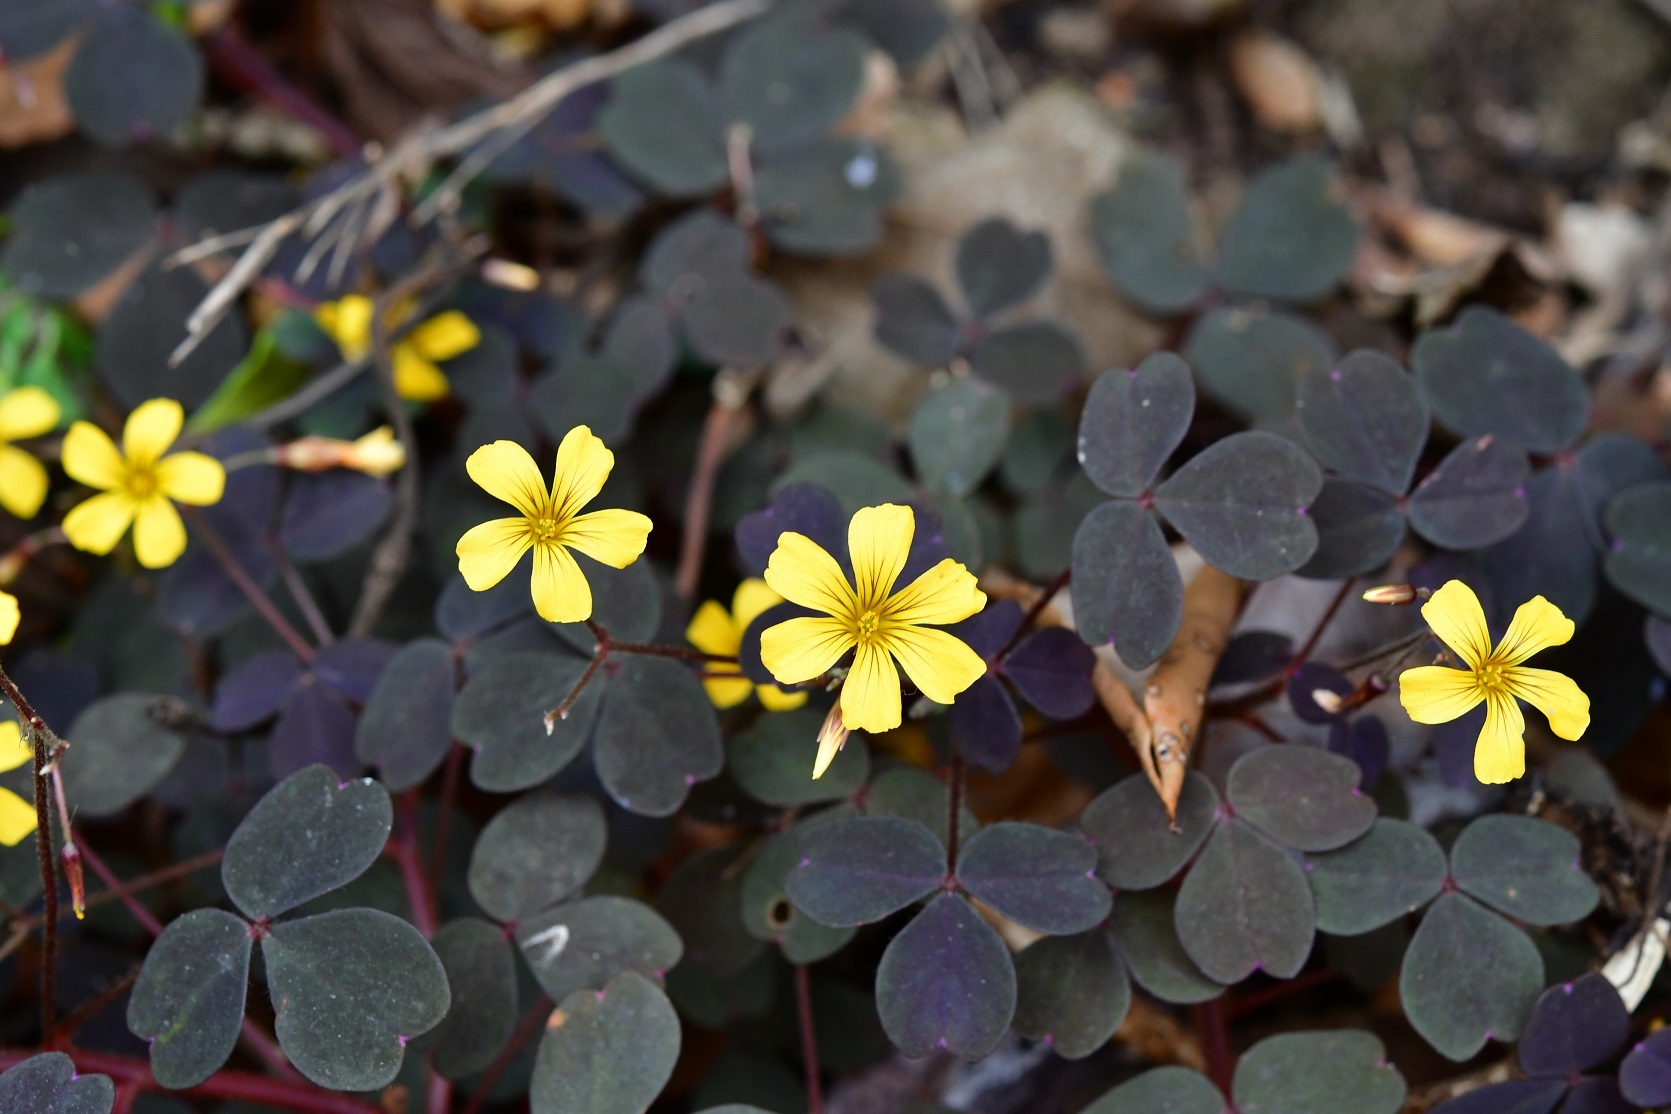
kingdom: Plantae
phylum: Tracheophyta
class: Magnoliopsida
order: Oxalidales
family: Oxalidaceae
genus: Oxalis
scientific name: Oxalis spiralis
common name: Spiral sorrel
